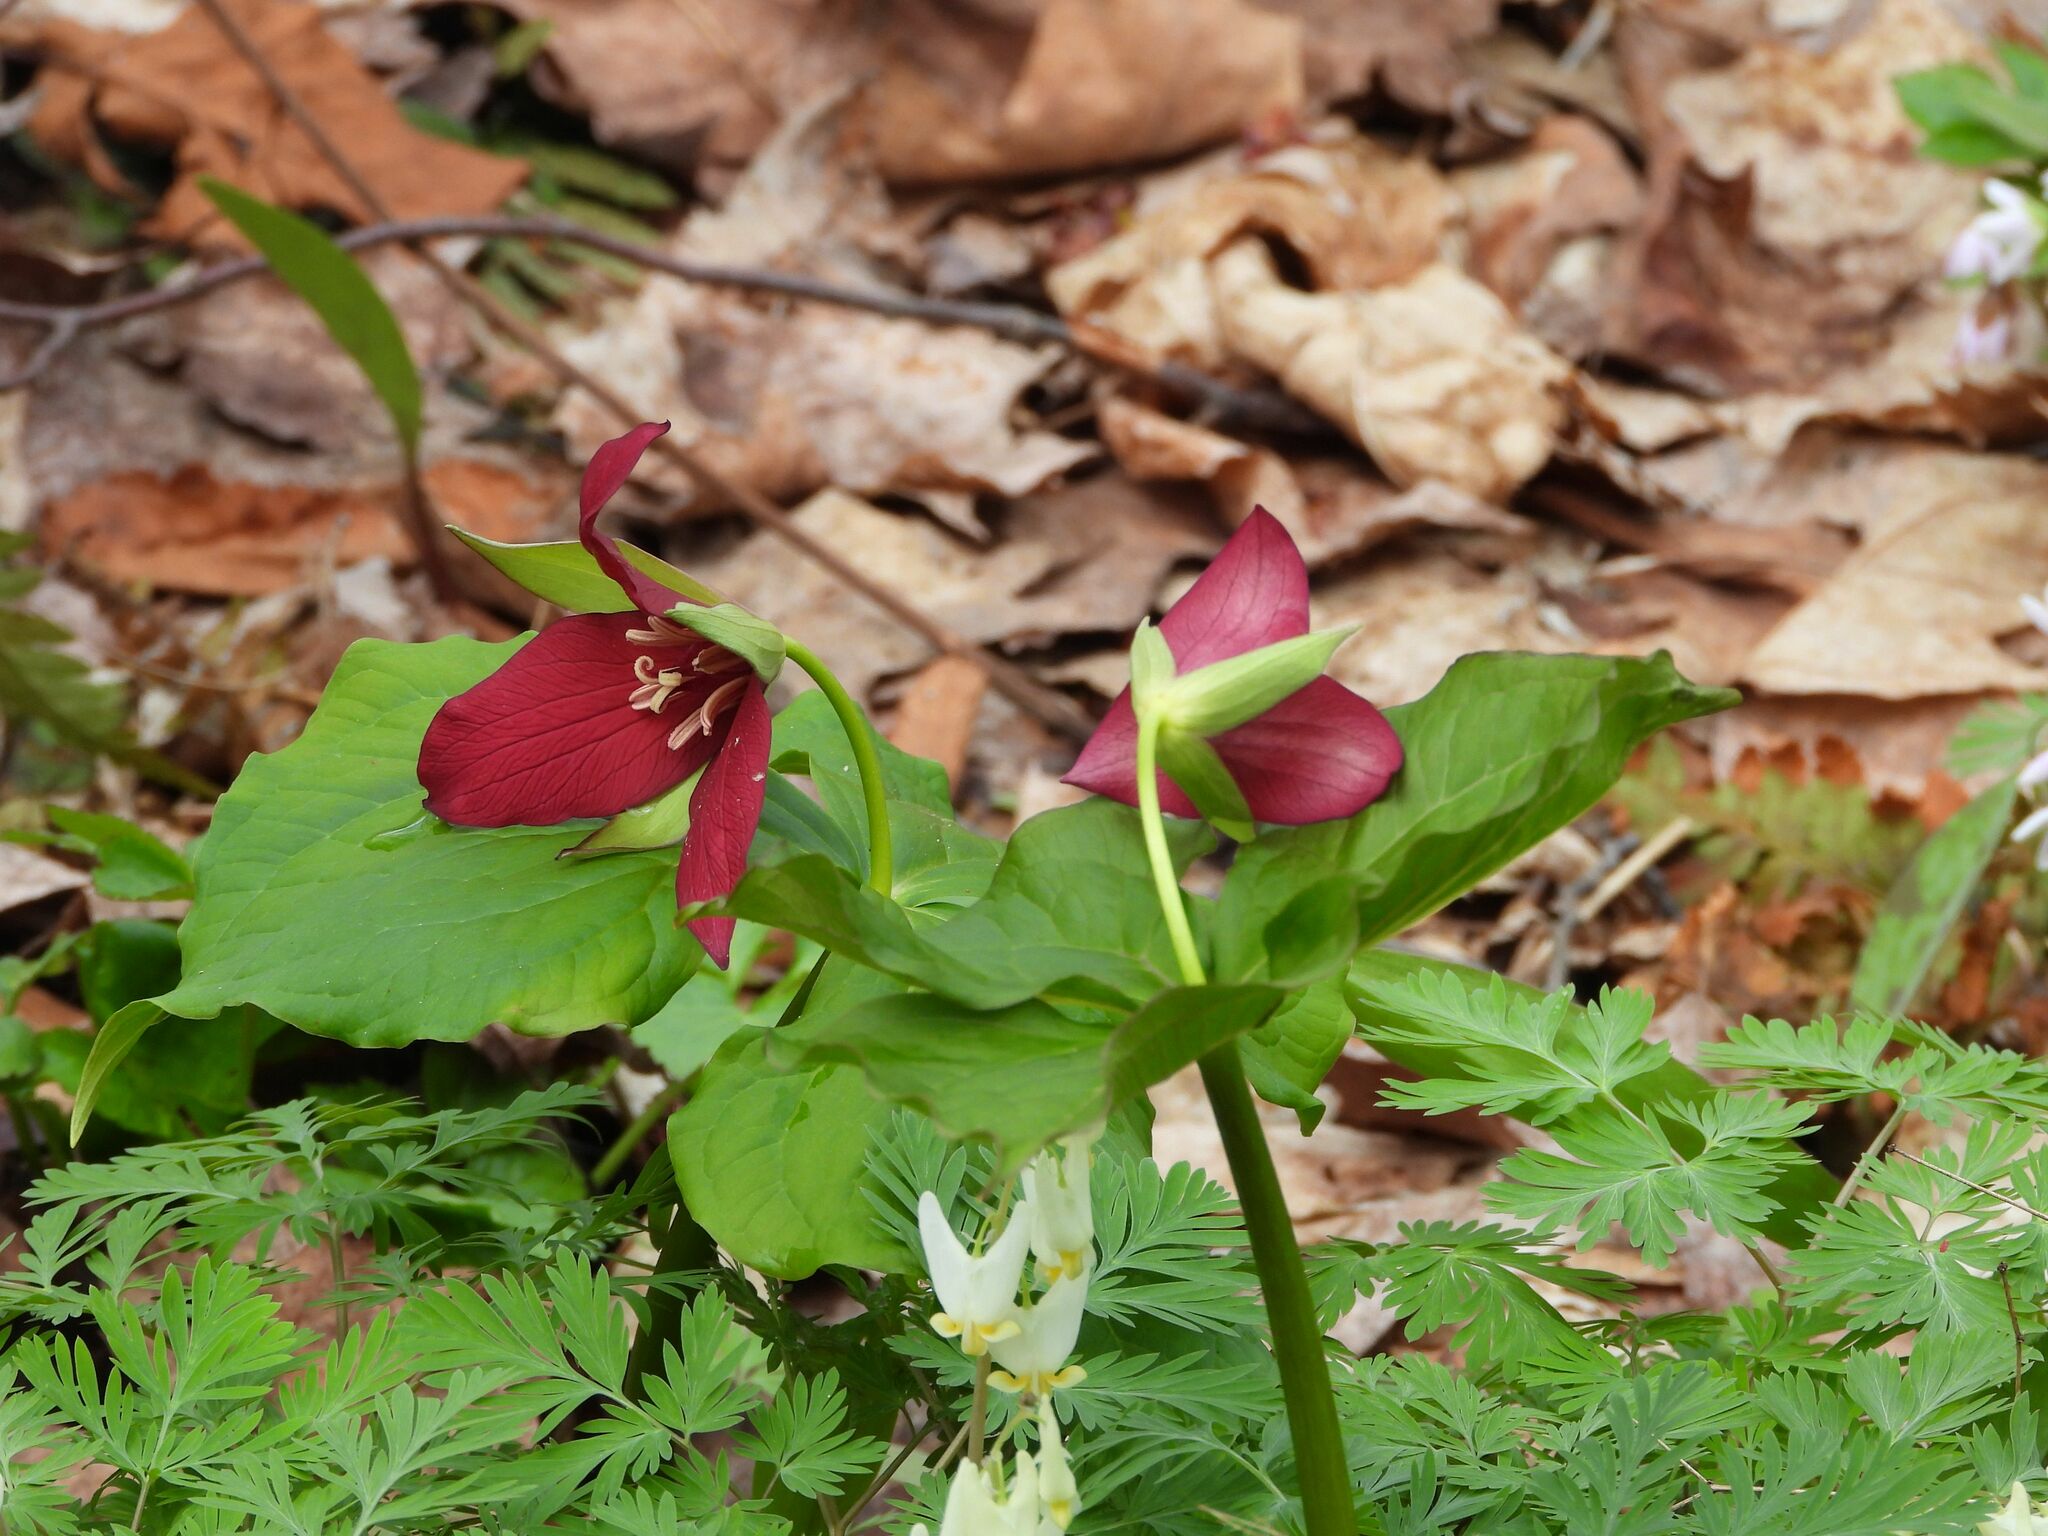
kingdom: Plantae
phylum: Tracheophyta
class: Liliopsida
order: Liliales
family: Melanthiaceae
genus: Trillium
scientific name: Trillium erectum
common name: Purple trillium
